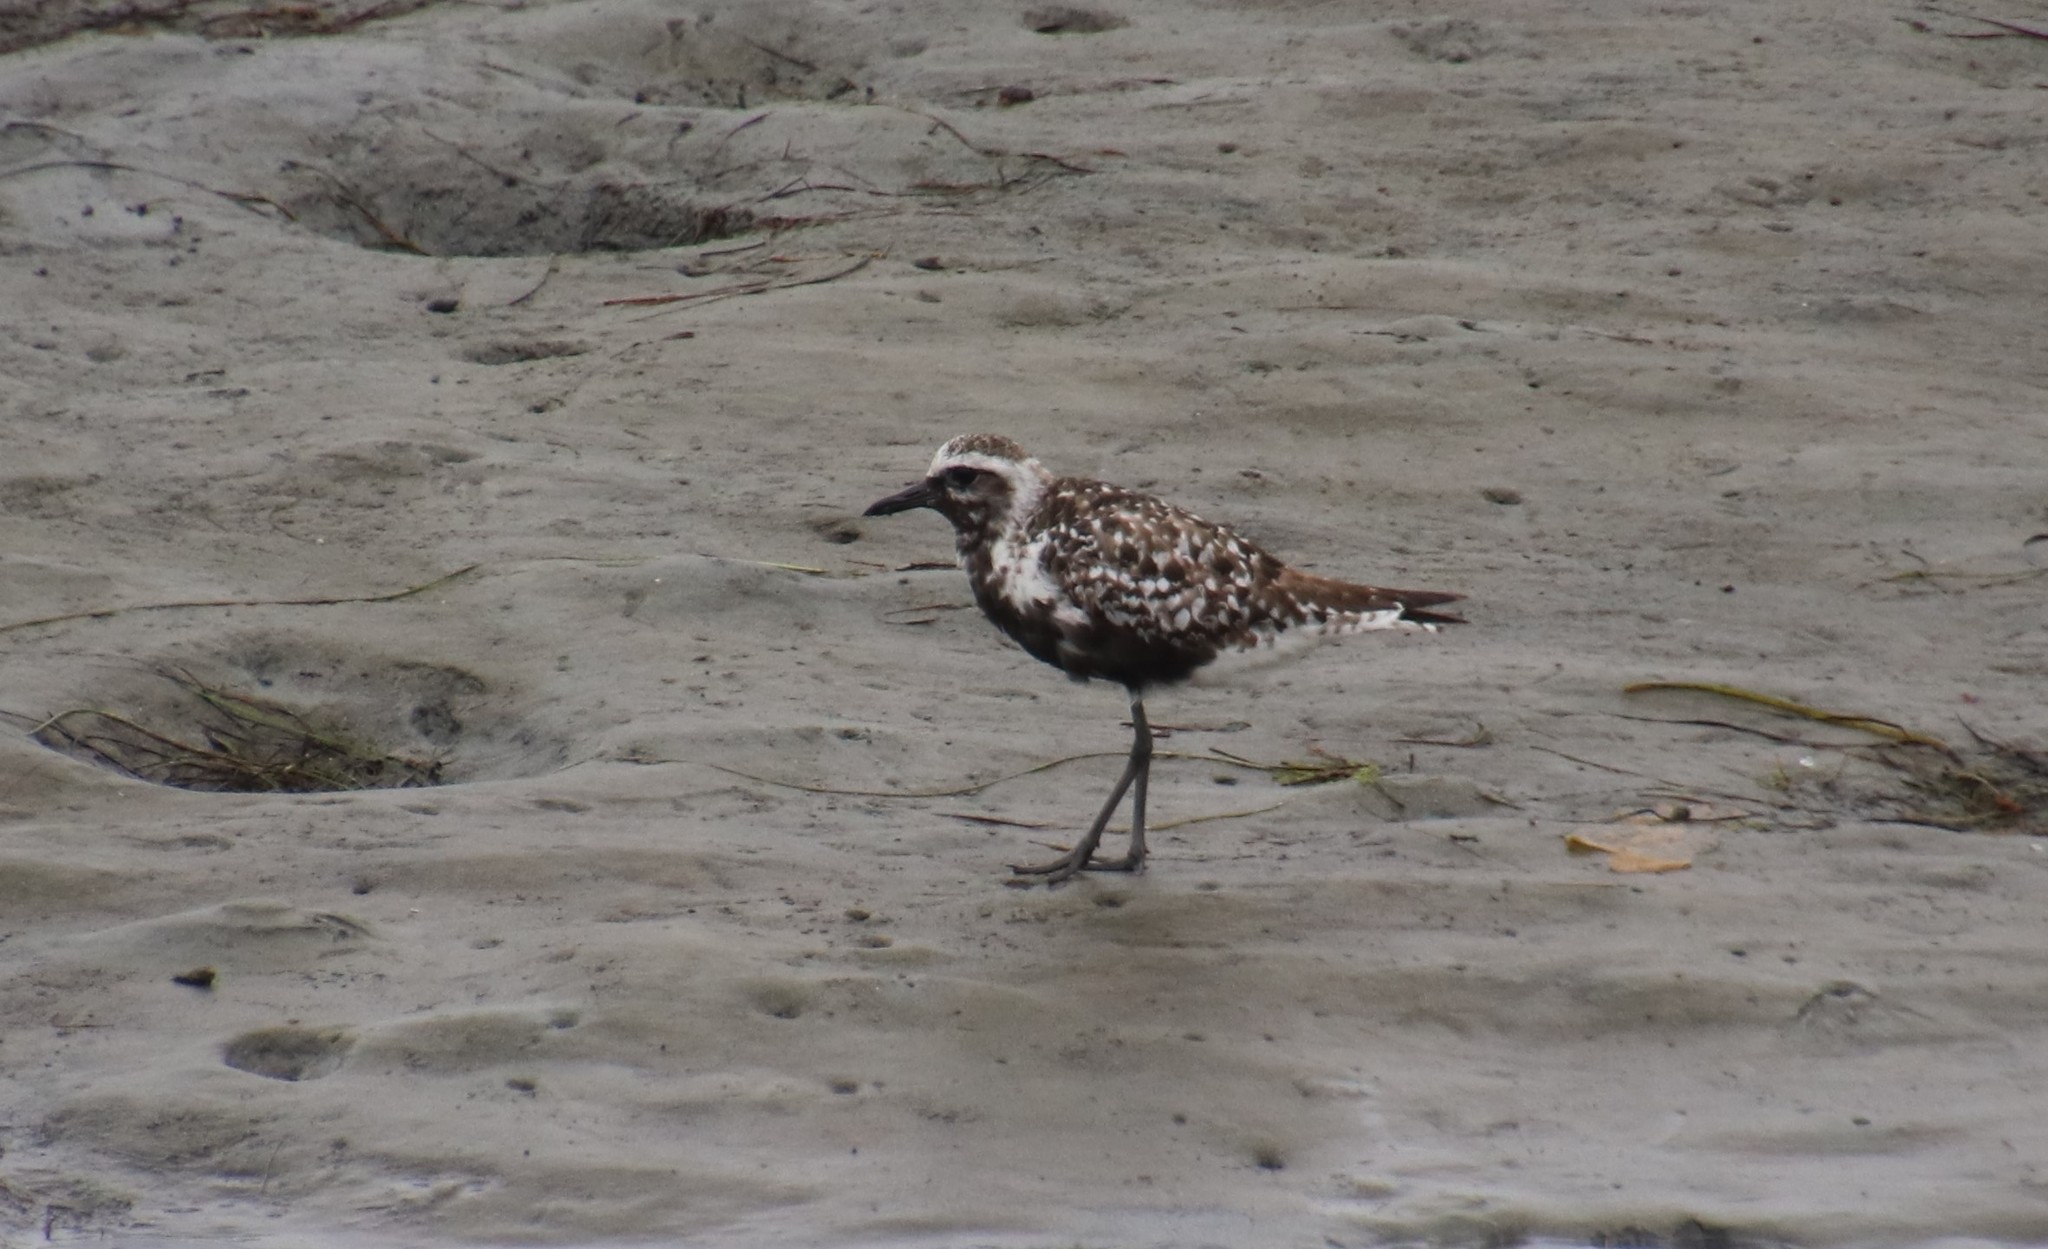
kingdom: Animalia
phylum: Chordata
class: Aves
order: Charadriiformes
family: Charadriidae
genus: Pluvialis
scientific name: Pluvialis squatarola
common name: Grey plover
